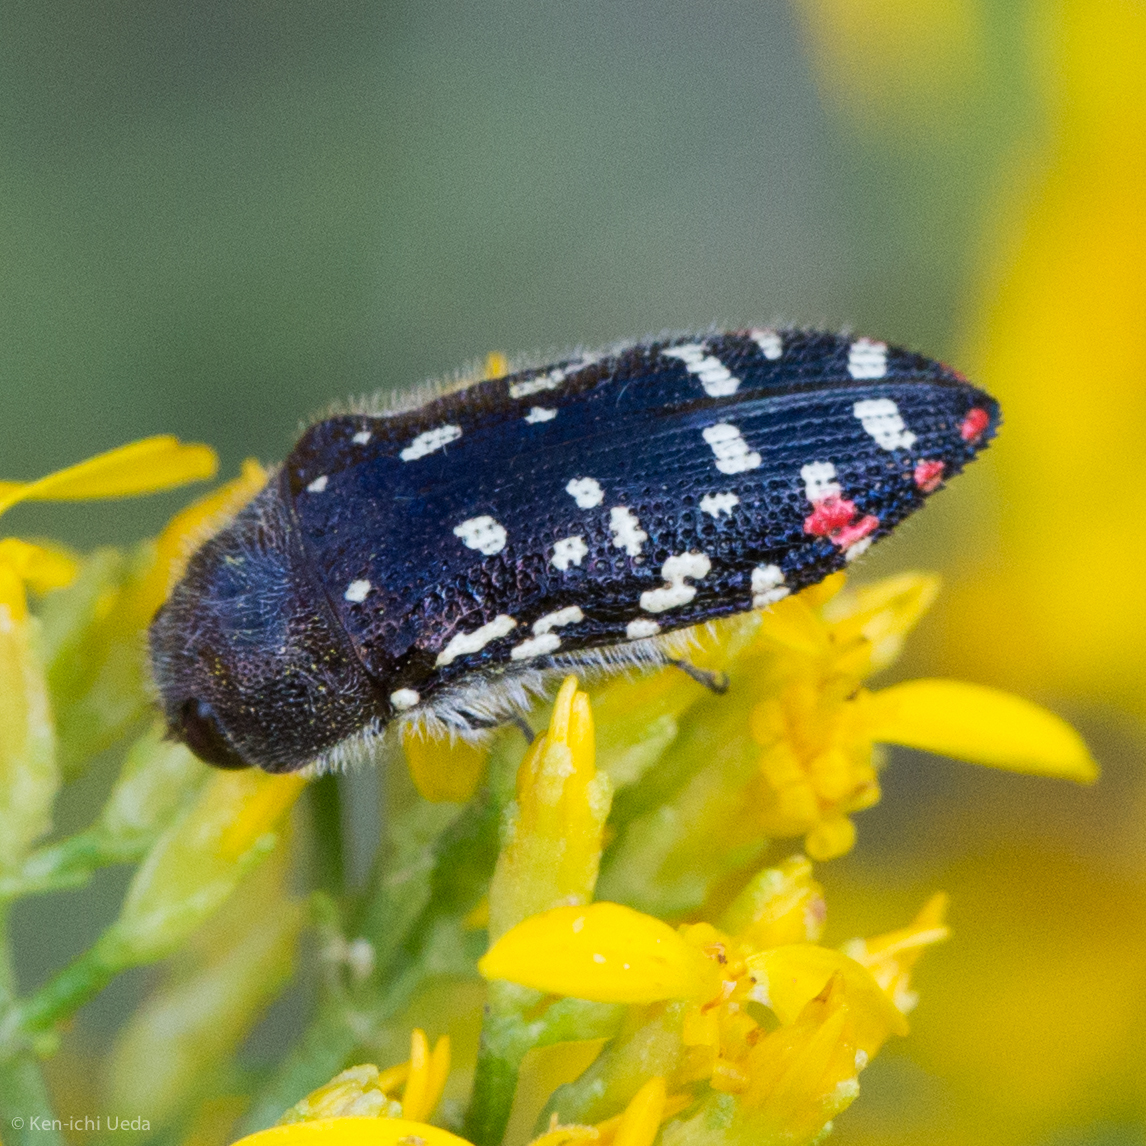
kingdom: Animalia
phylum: Arthropoda
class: Insecta
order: Coleoptera
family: Buprestidae
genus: Acmaeodera
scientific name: Acmaeodera rubronotata
